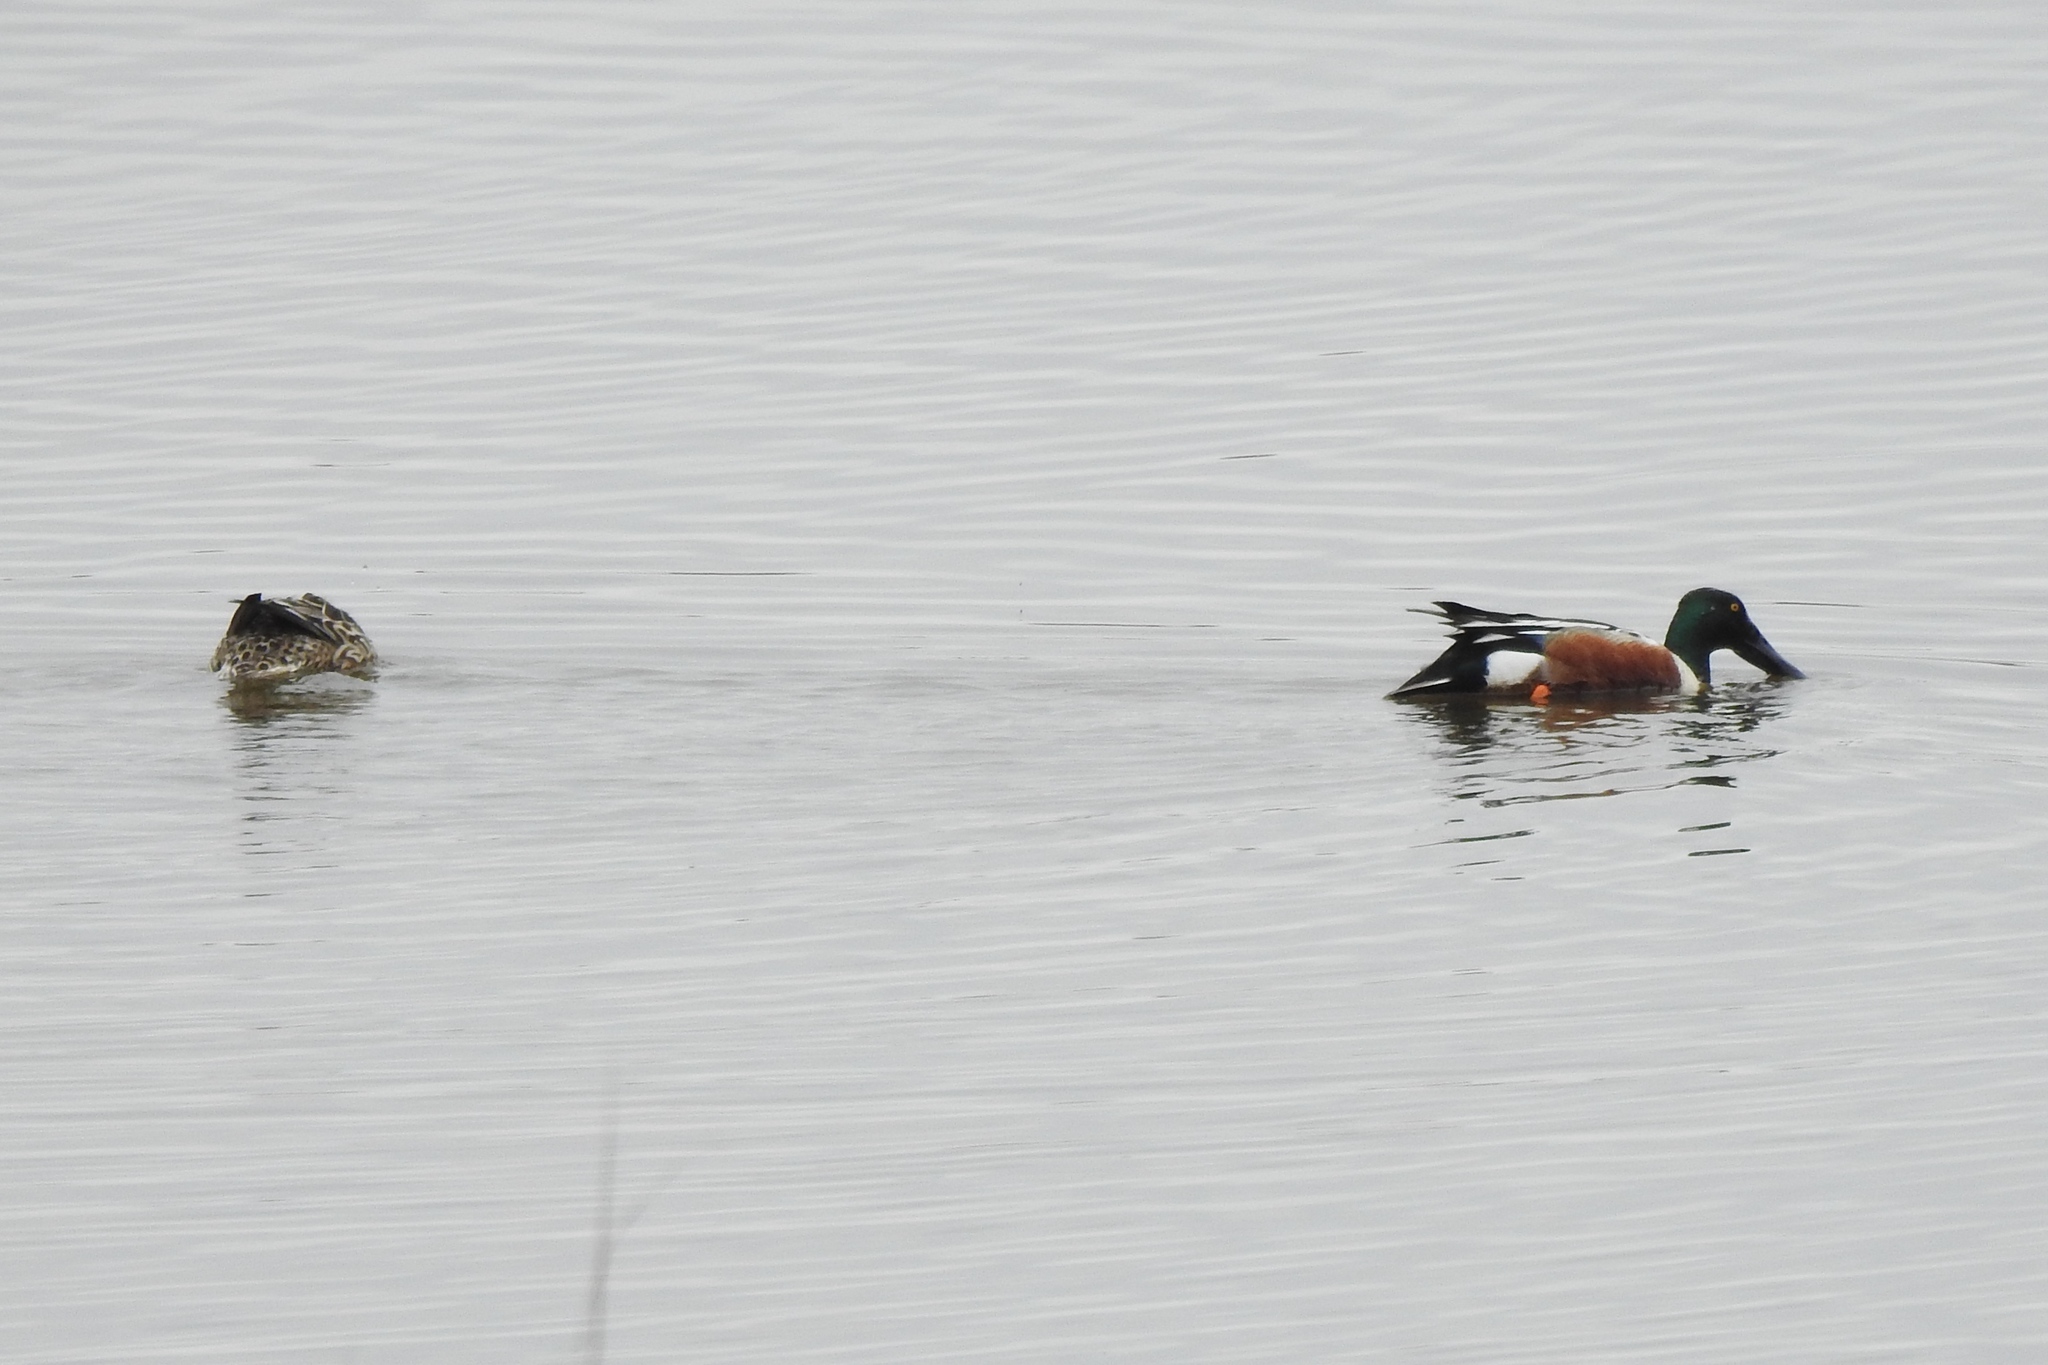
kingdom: Animalia
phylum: Chordata
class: Aves
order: Anseriformes
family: Anatidae
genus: Spatula
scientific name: Spatula clypeata
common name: Northern shoveler
